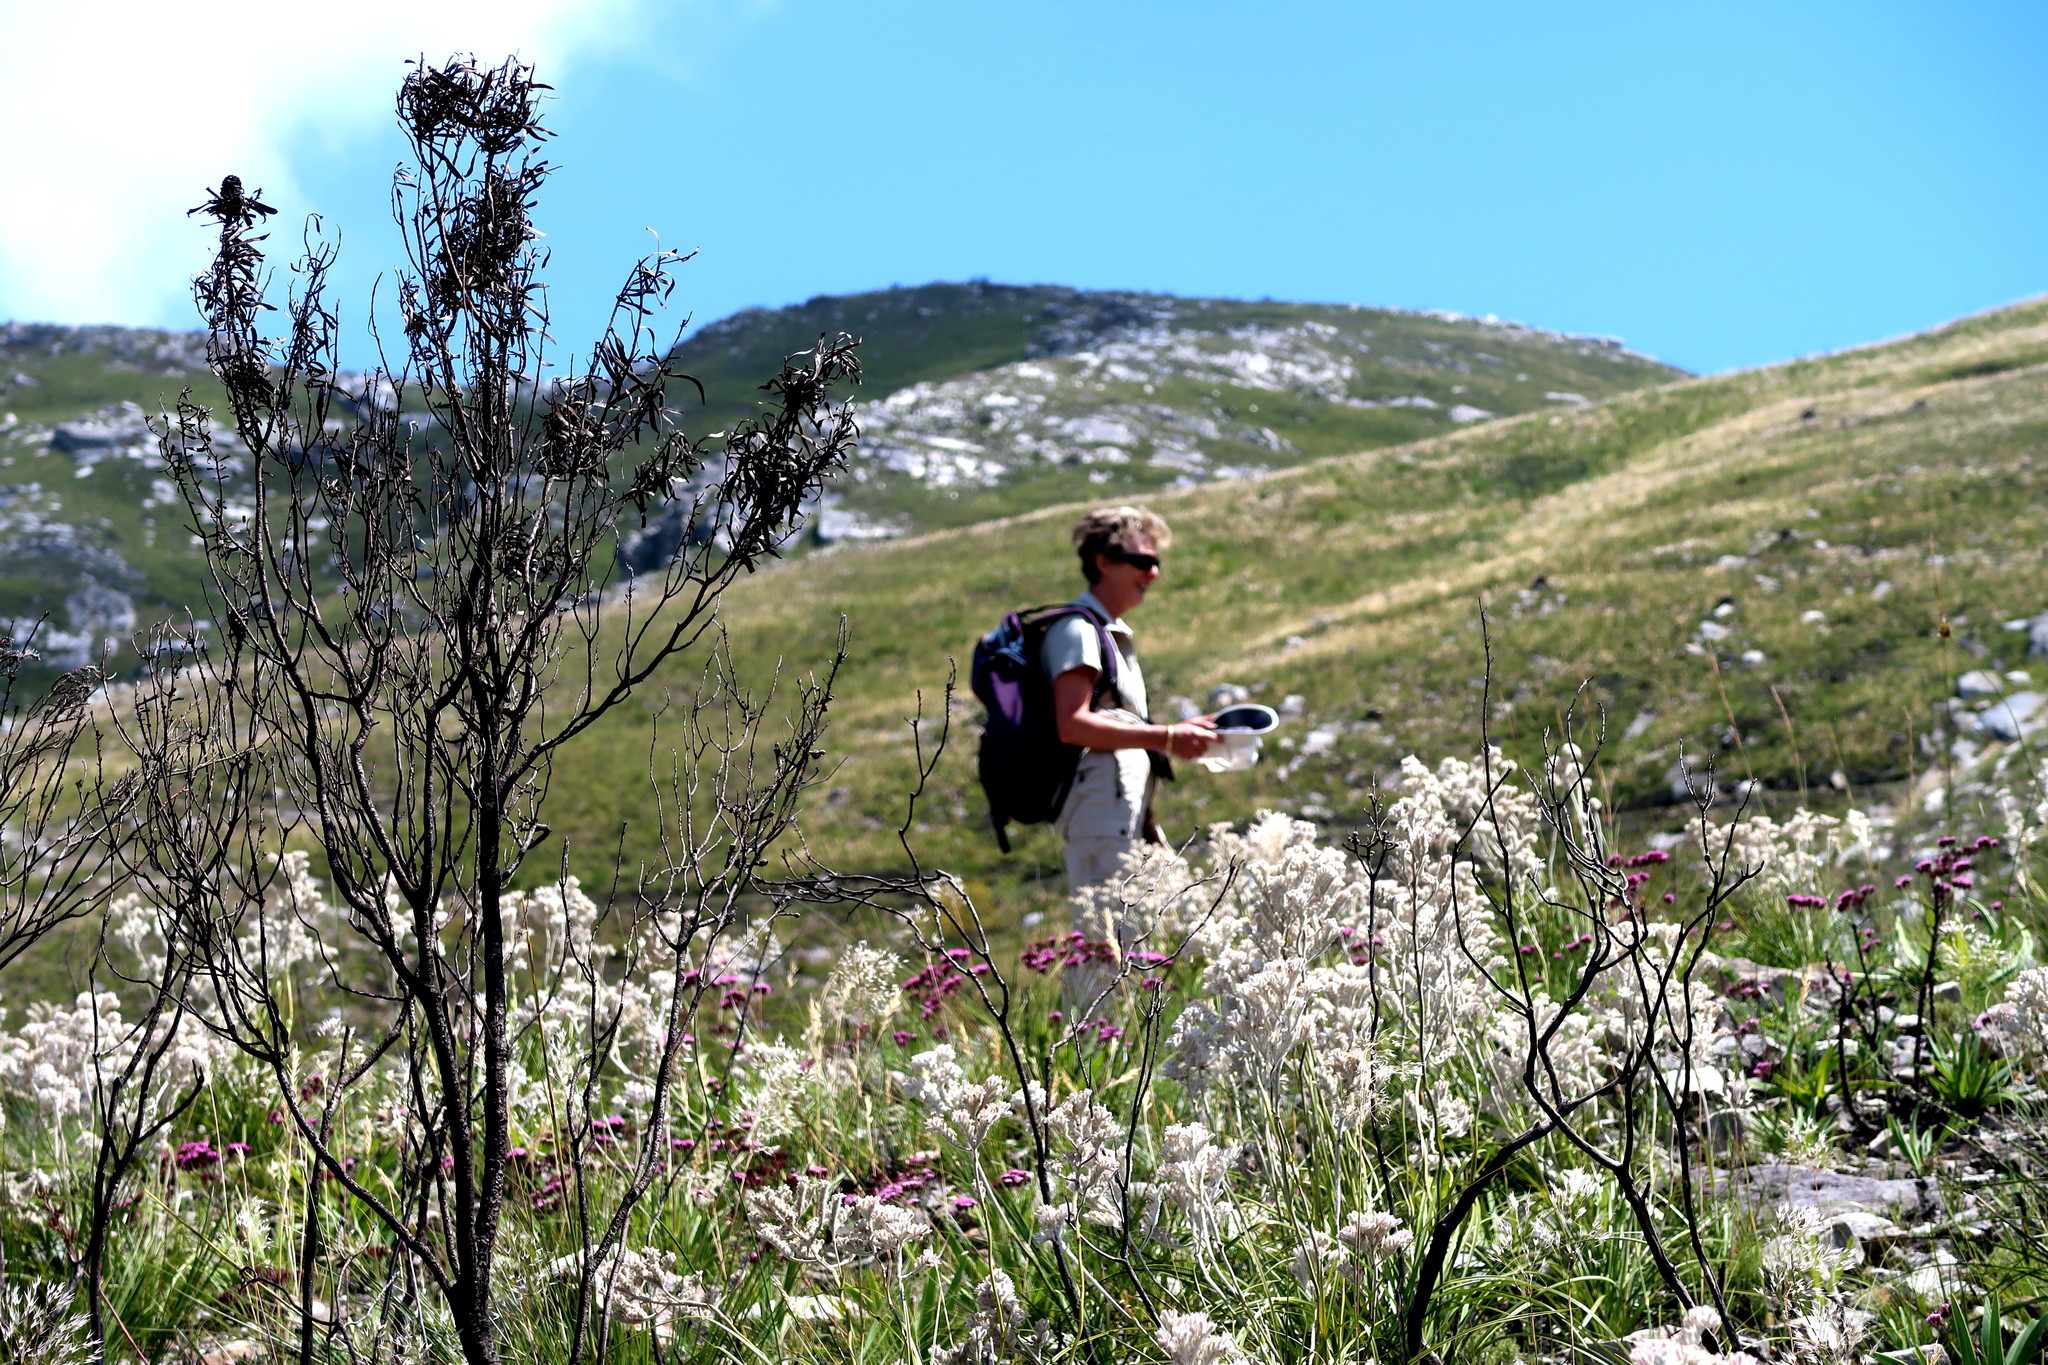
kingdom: Plantae
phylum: Tracheophyta
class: Liliopsida
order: Asparagales
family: Lanariaceae
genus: Lanaria
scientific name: Lanaria lanata
